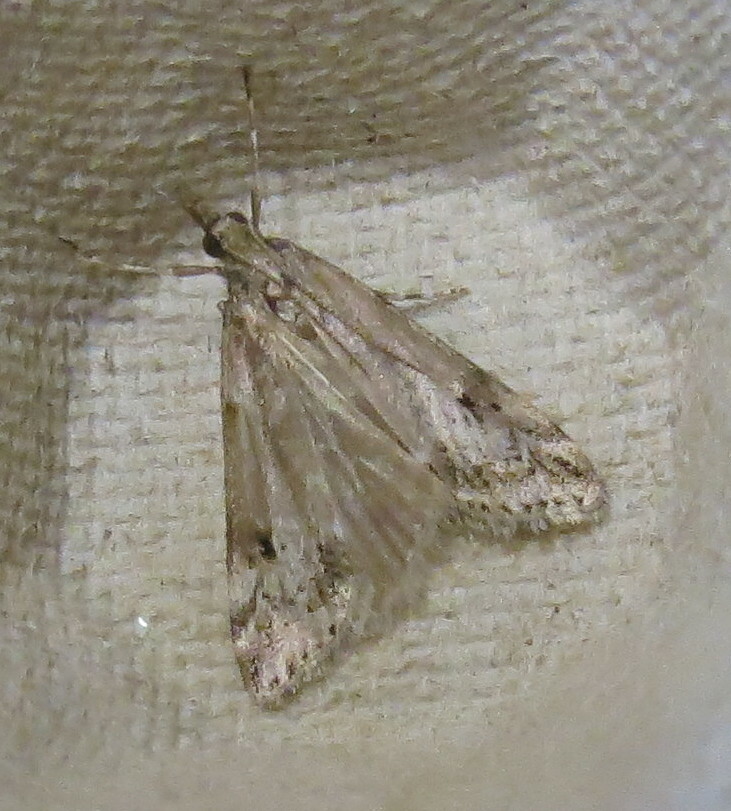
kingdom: Animalia
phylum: Arthropoda
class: Insecta
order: Lepidoptera
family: Crambidae
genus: Eudonia
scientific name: Eudonia angustea
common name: Narrow-winged grey
